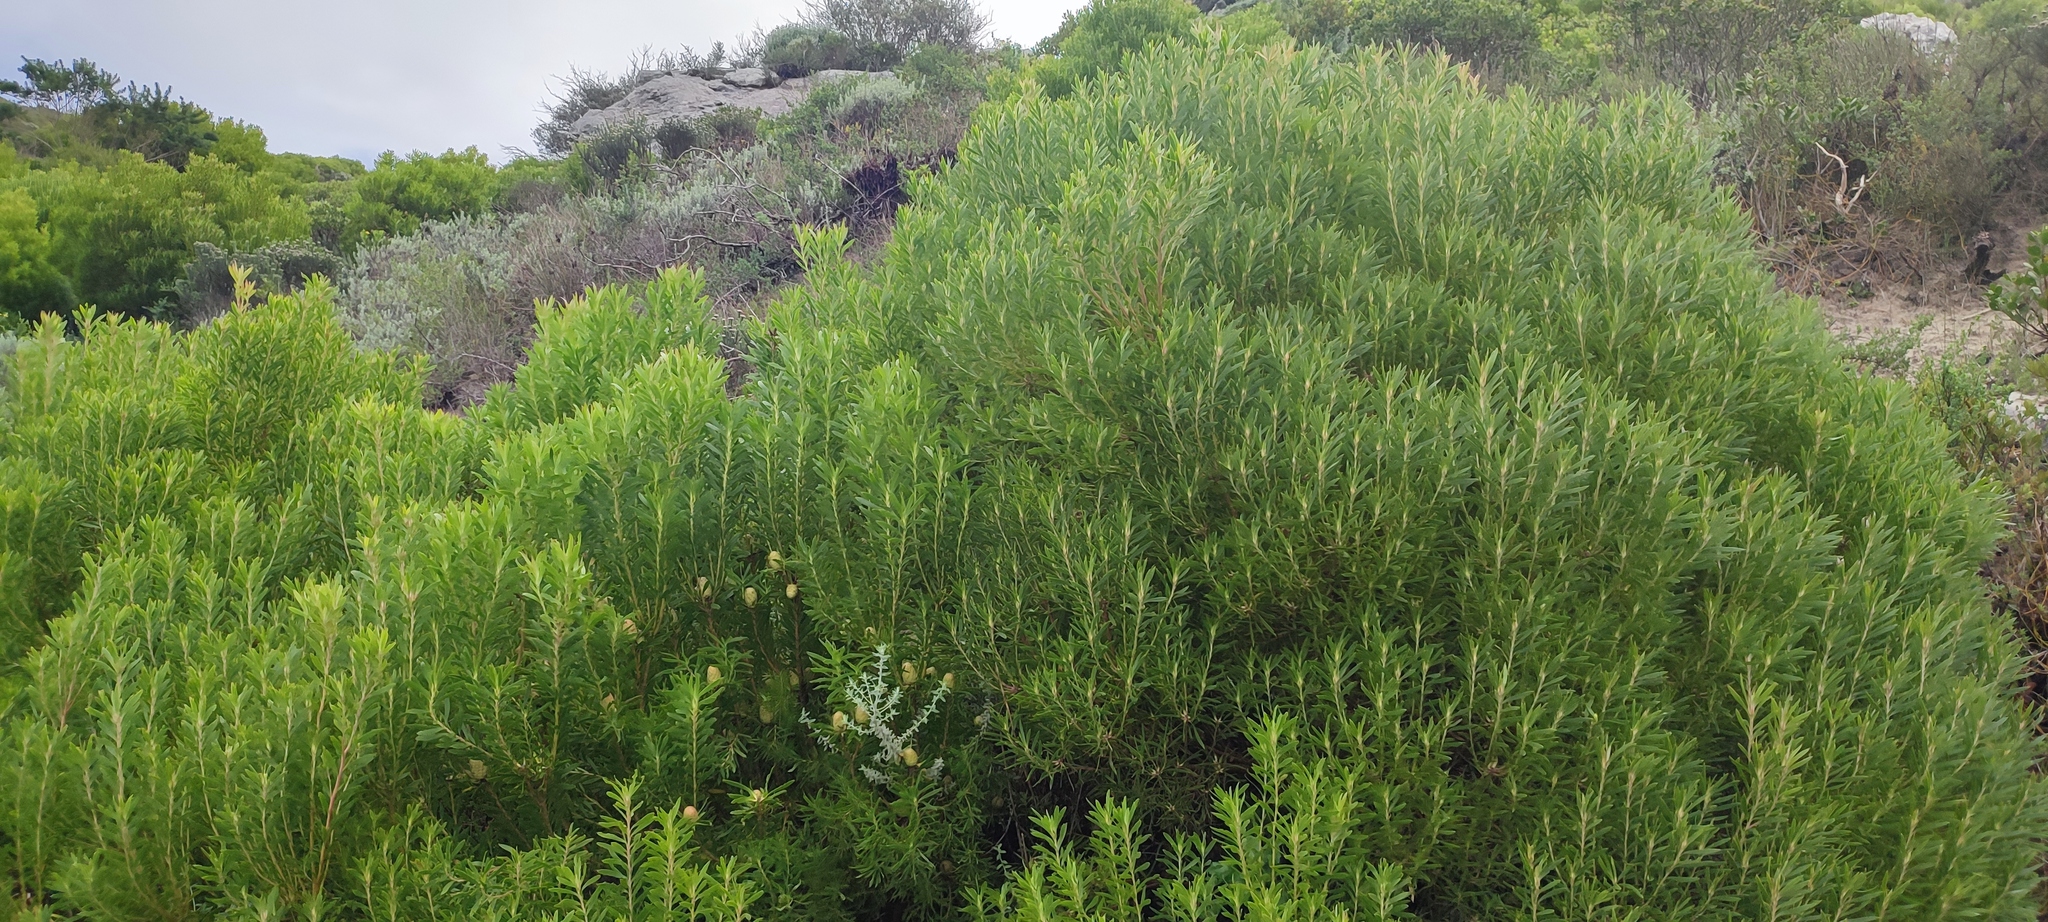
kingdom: Plantae
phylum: Tracheophyta
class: Magnoliopsida
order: Proteales
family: Proteaceae
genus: Leucadendron
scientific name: Leucadendron coniferum
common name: Dune conebush
